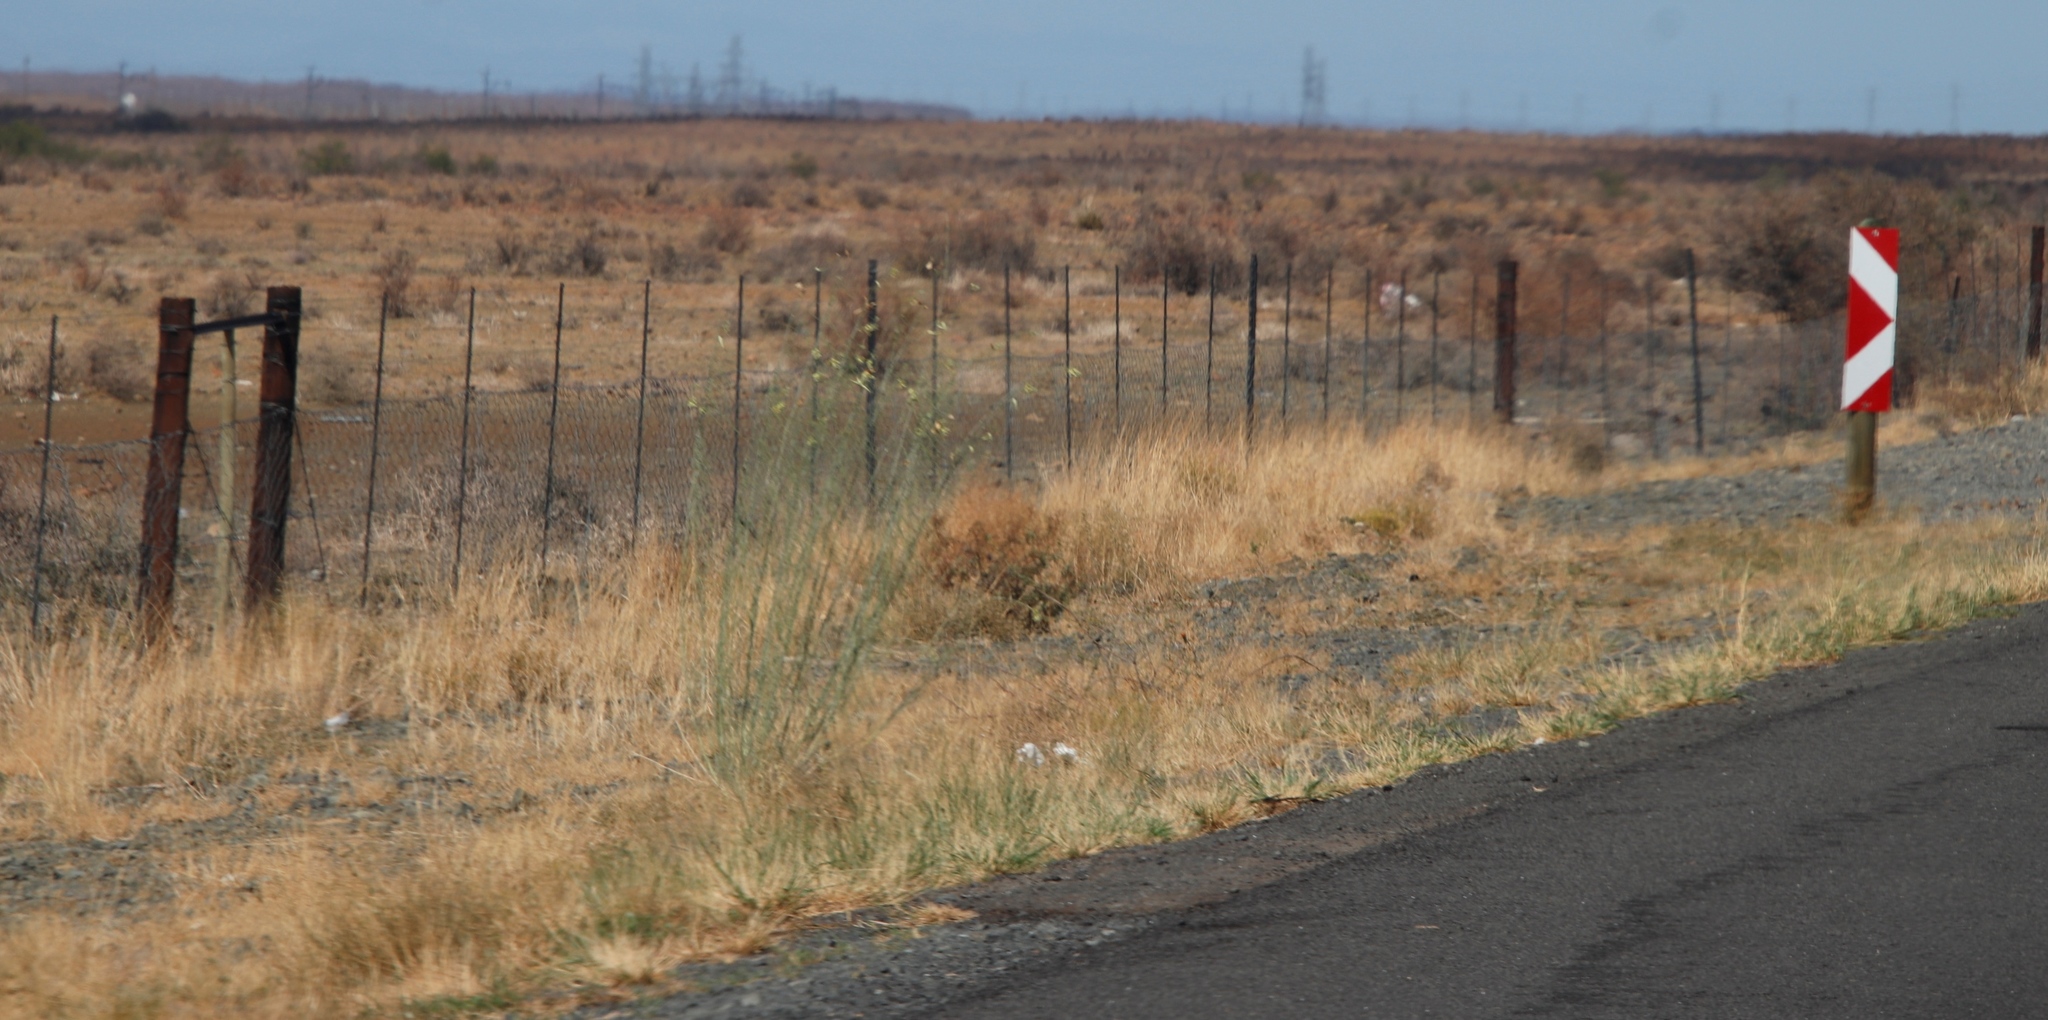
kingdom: Plantae
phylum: Tracheophyta
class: Magnoliopsida
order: Gentianales
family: Apocynaceae
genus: Gomphocarpus
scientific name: Gomphocarpus filiformis
